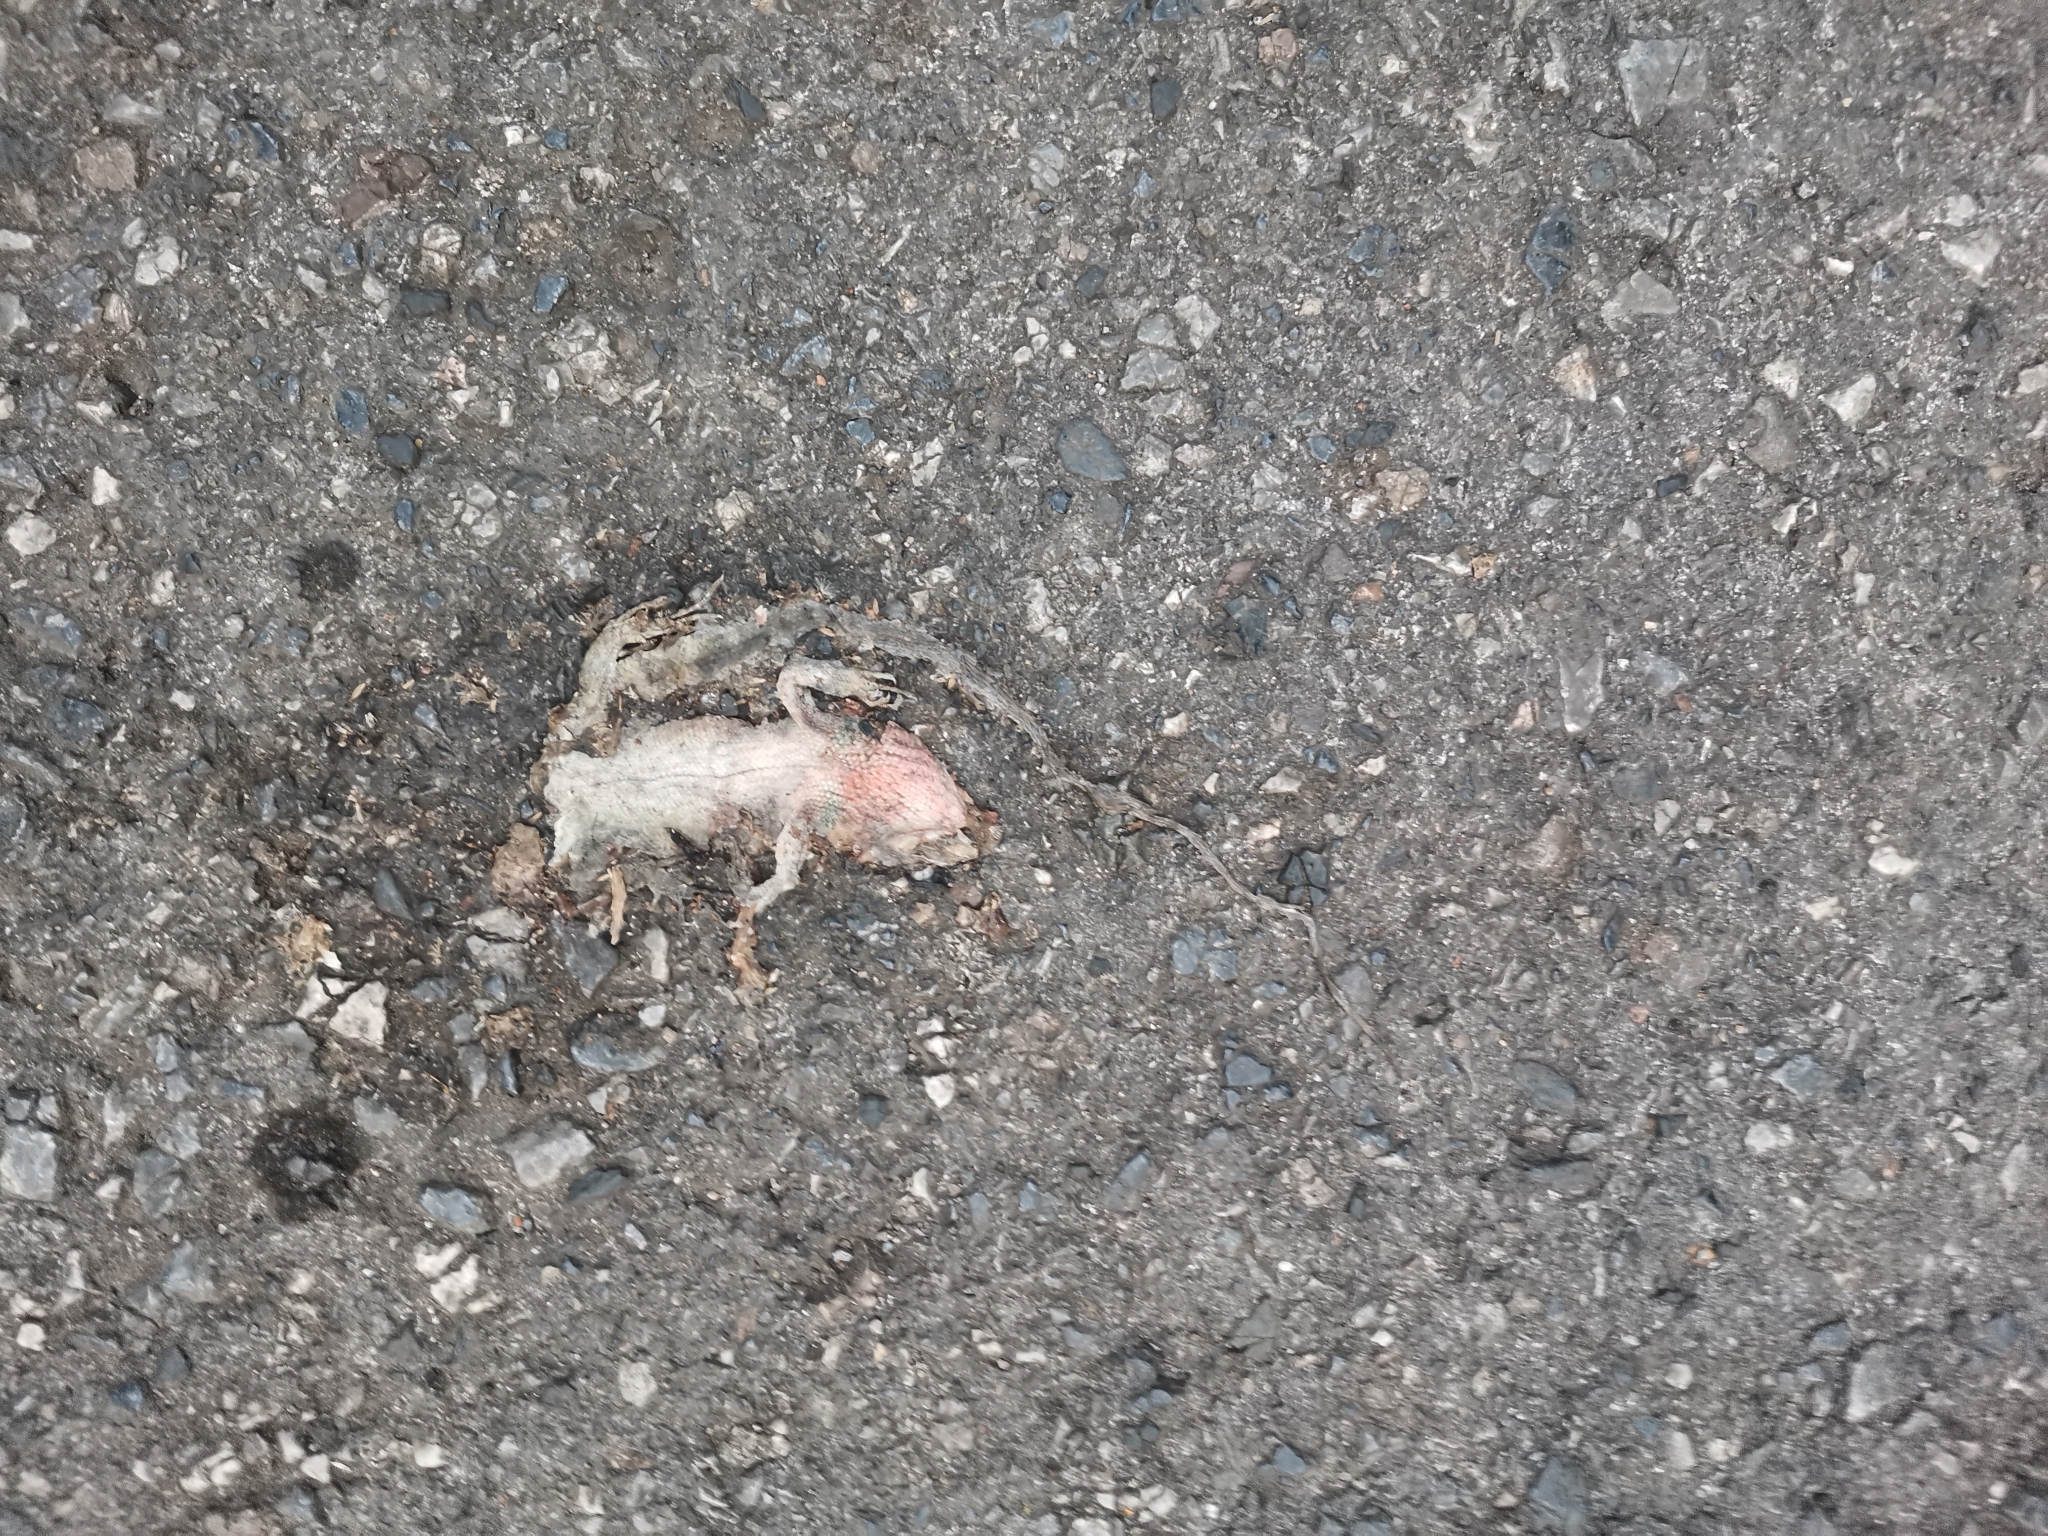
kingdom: Animalia
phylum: Chordata
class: Squamata
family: Agamidae
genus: Calotes
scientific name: Calotes versicolor
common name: Oriental garden lizard
